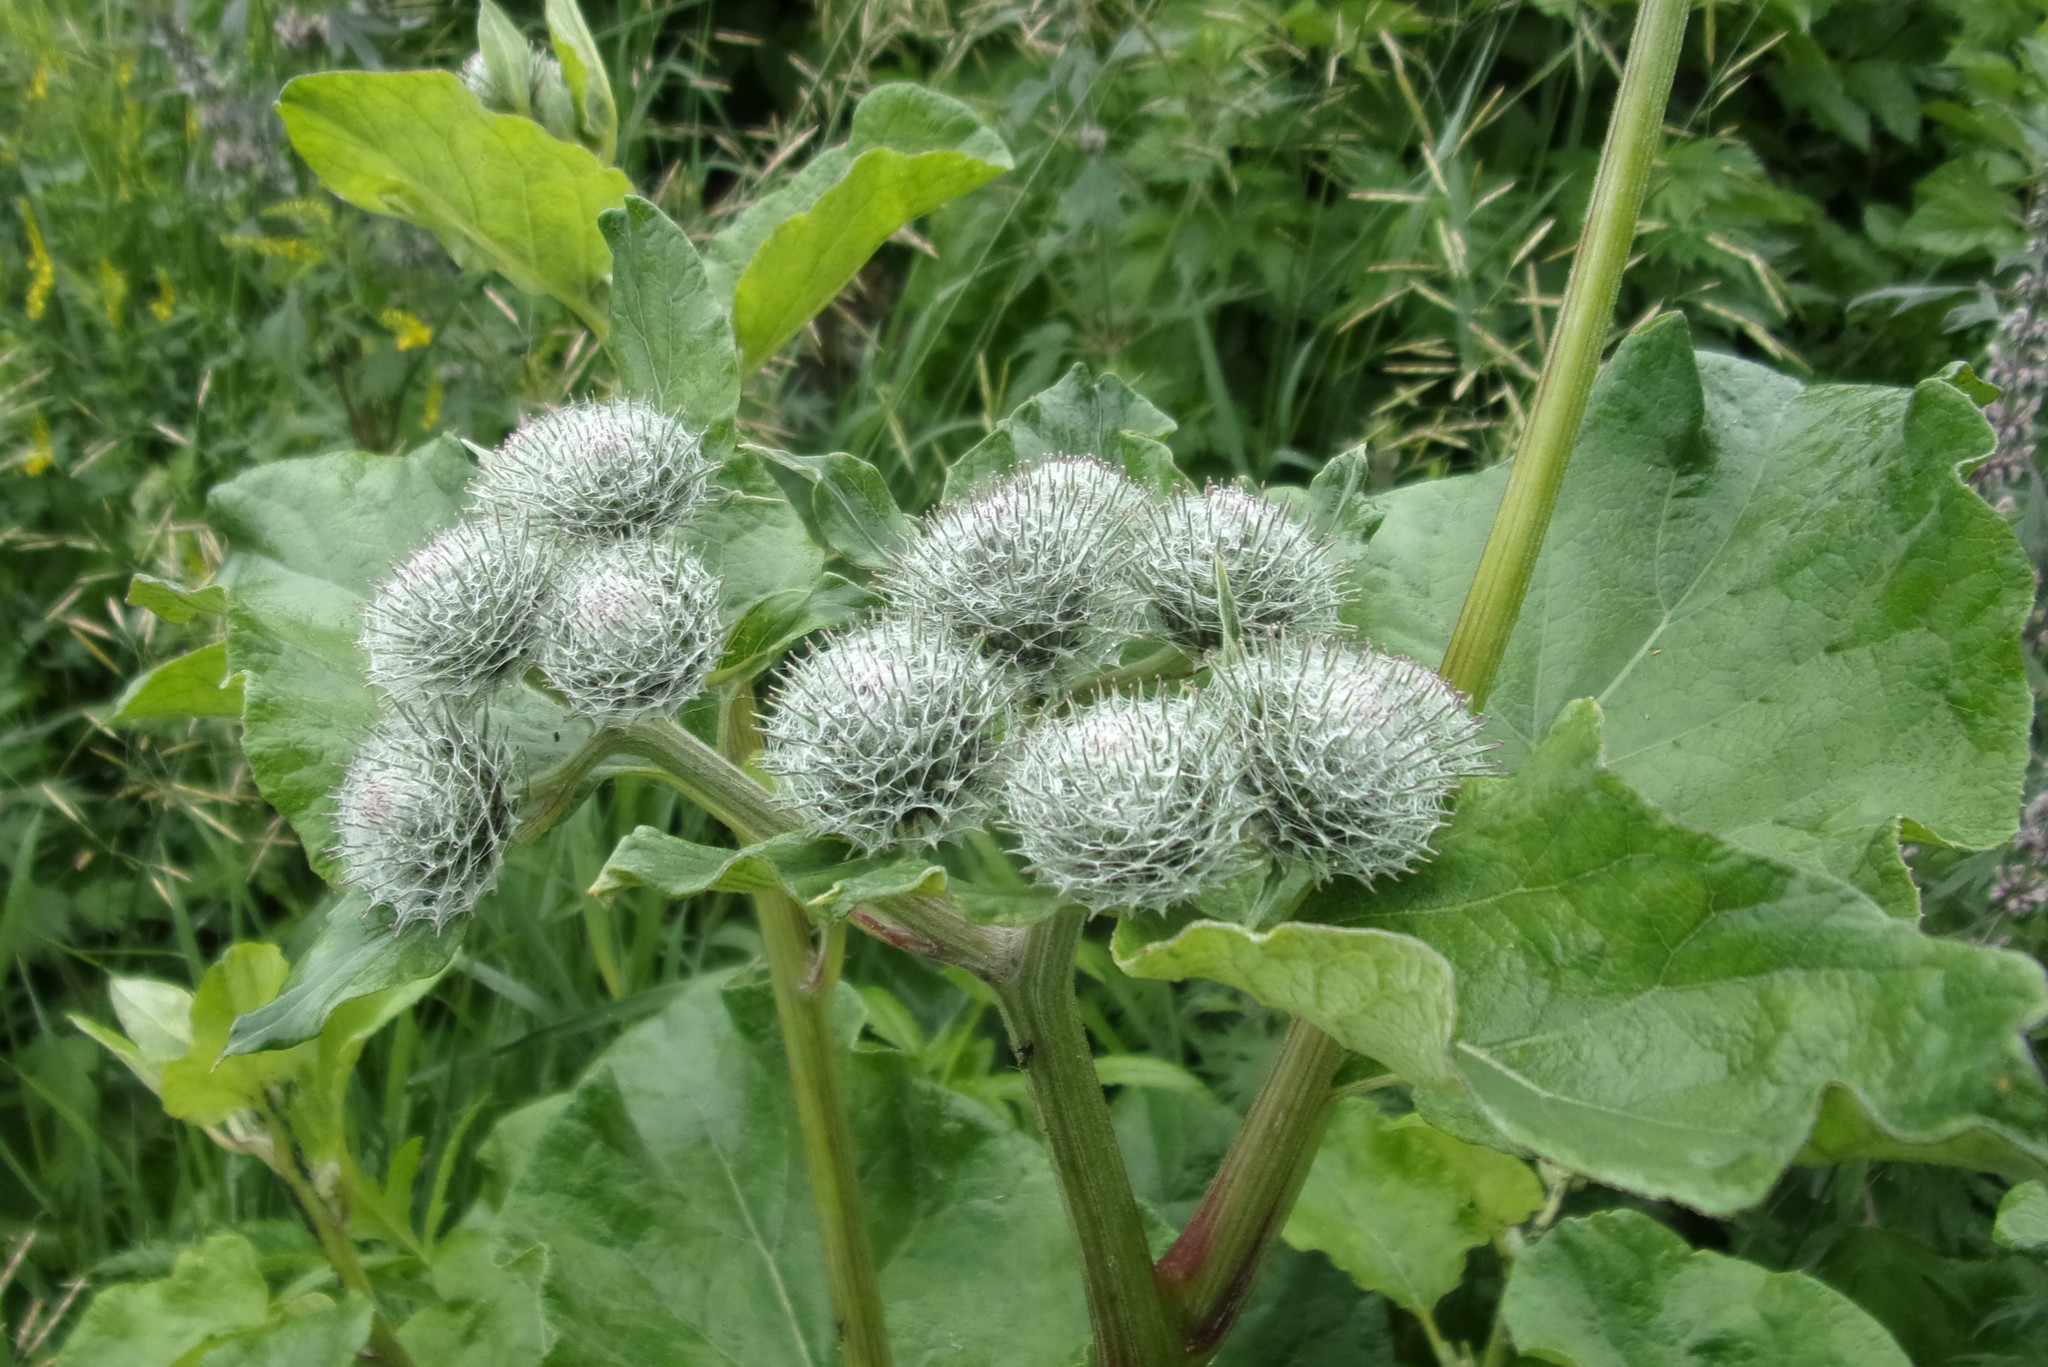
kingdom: Plantae
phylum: Tracheophyta
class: Magnoliopsida
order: Asterales
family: Asteraceae
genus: Arctium
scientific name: Arctium tomentosum
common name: Woolly burdock
